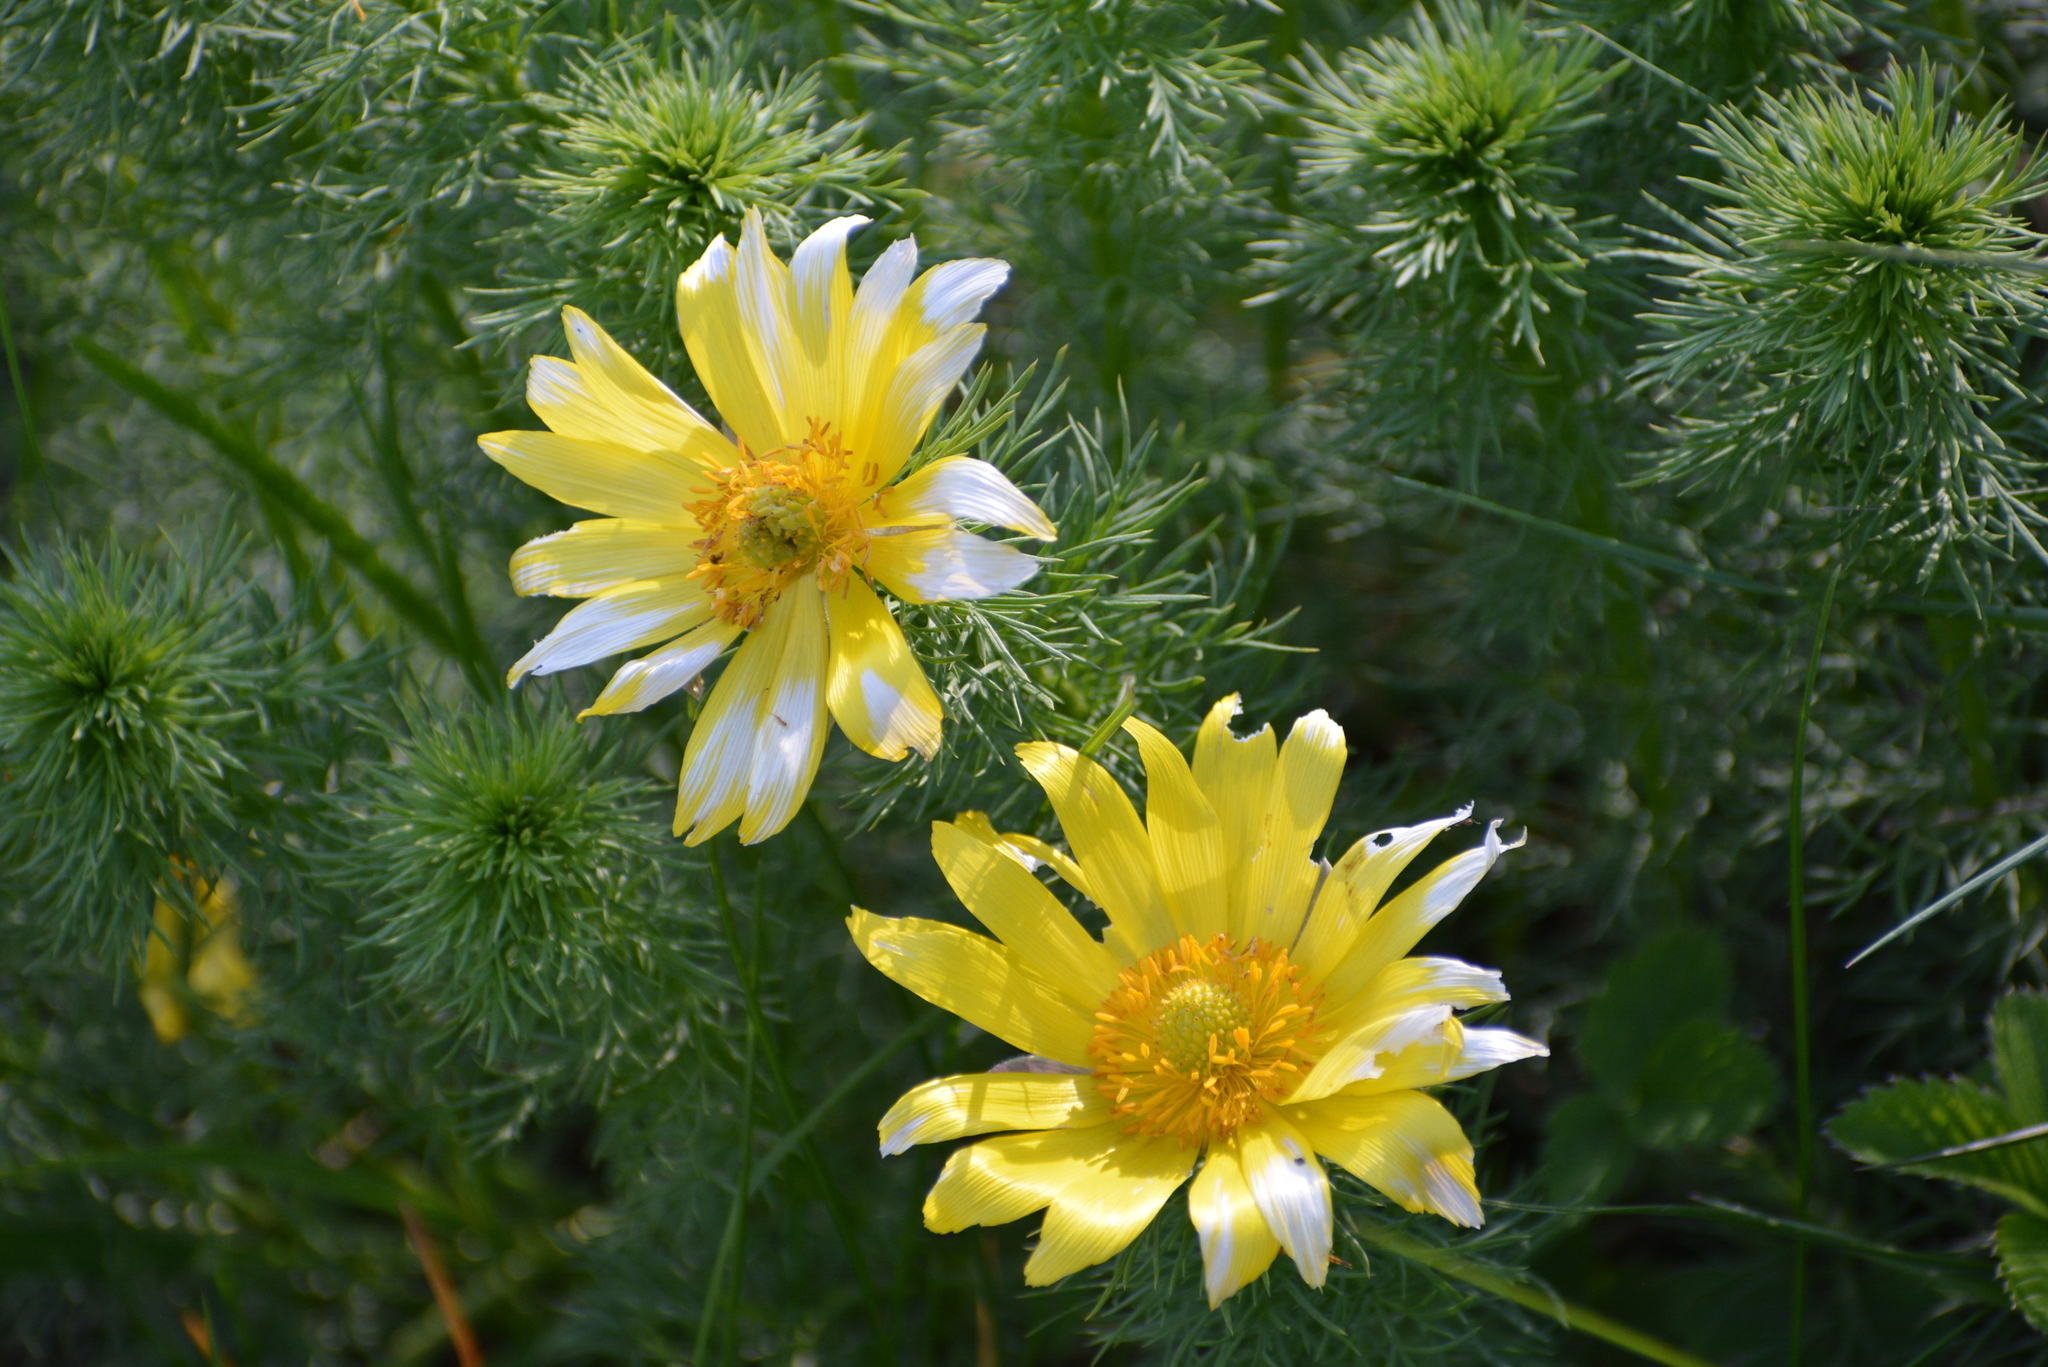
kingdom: Plantae
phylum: Tracheophyta
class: Magnoliopsida
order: Ranunculales
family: Ranunculaceae
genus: Adonis
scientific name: Adonis vernalis
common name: Yellow pheasants-eye
